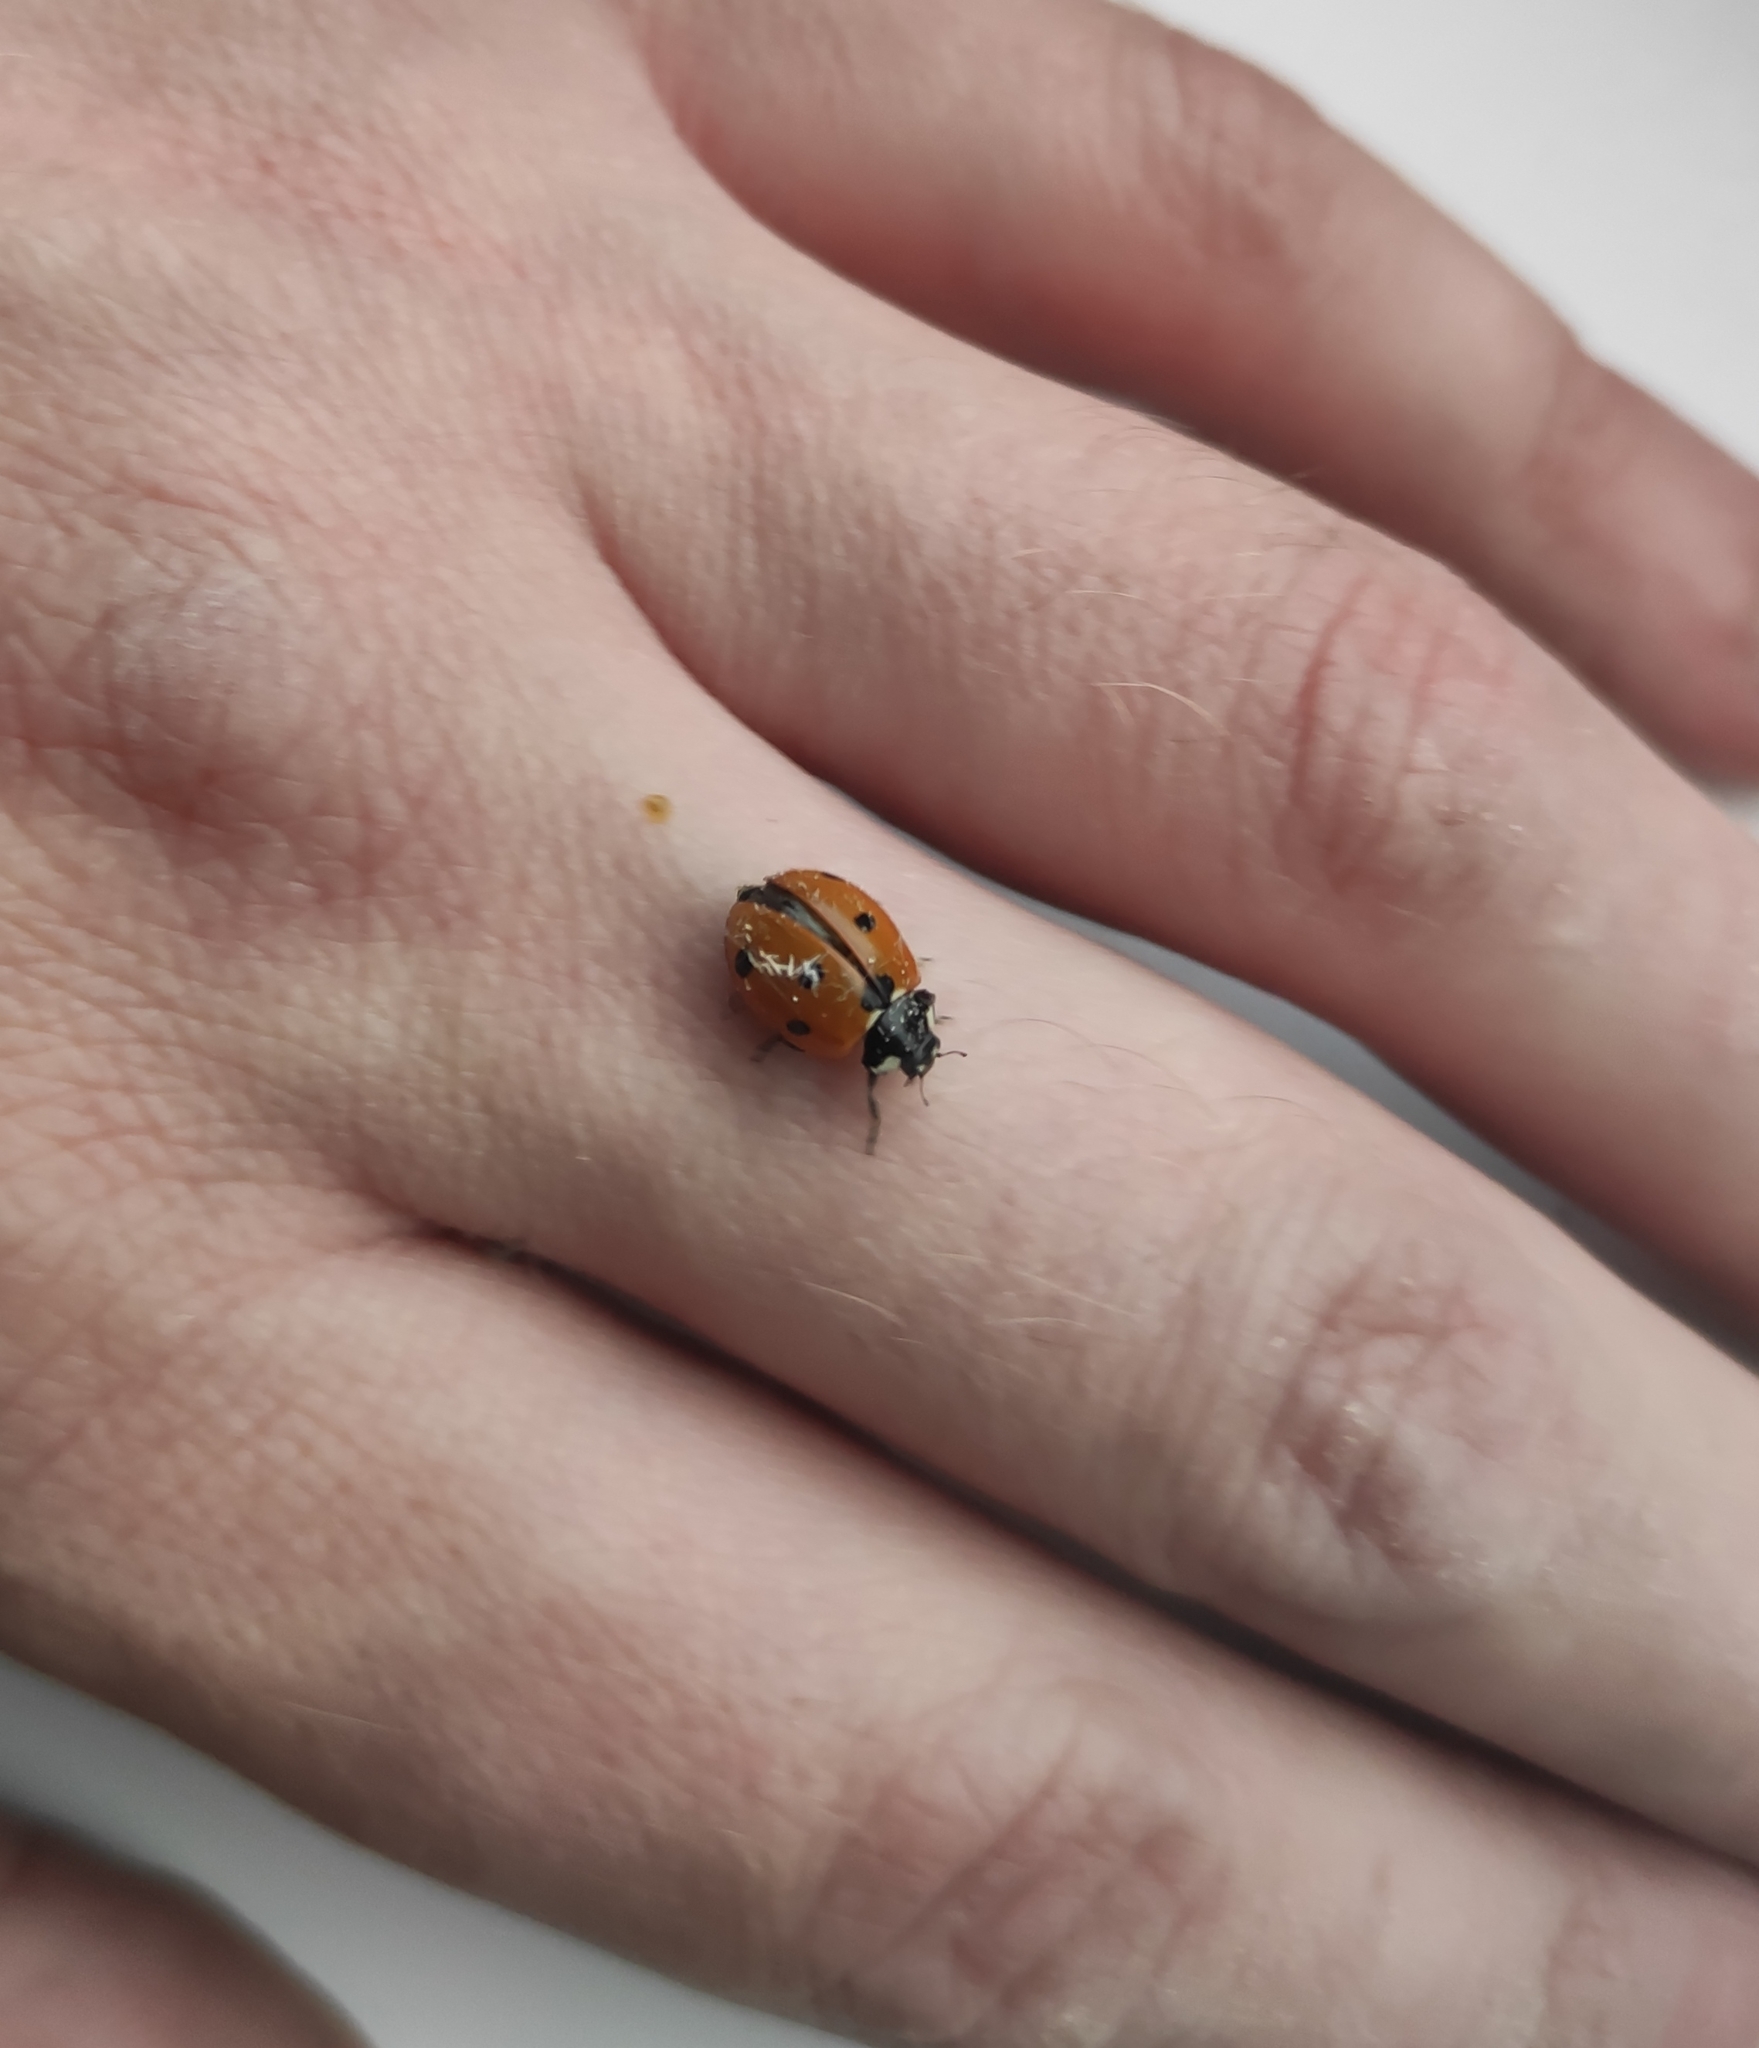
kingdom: Animalia
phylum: Arthropoda
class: Insecta
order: Coleoptera
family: Coccinellidae
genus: Coccinella
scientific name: Coccinella septempunctata
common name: Sevenspotted lady beetle
